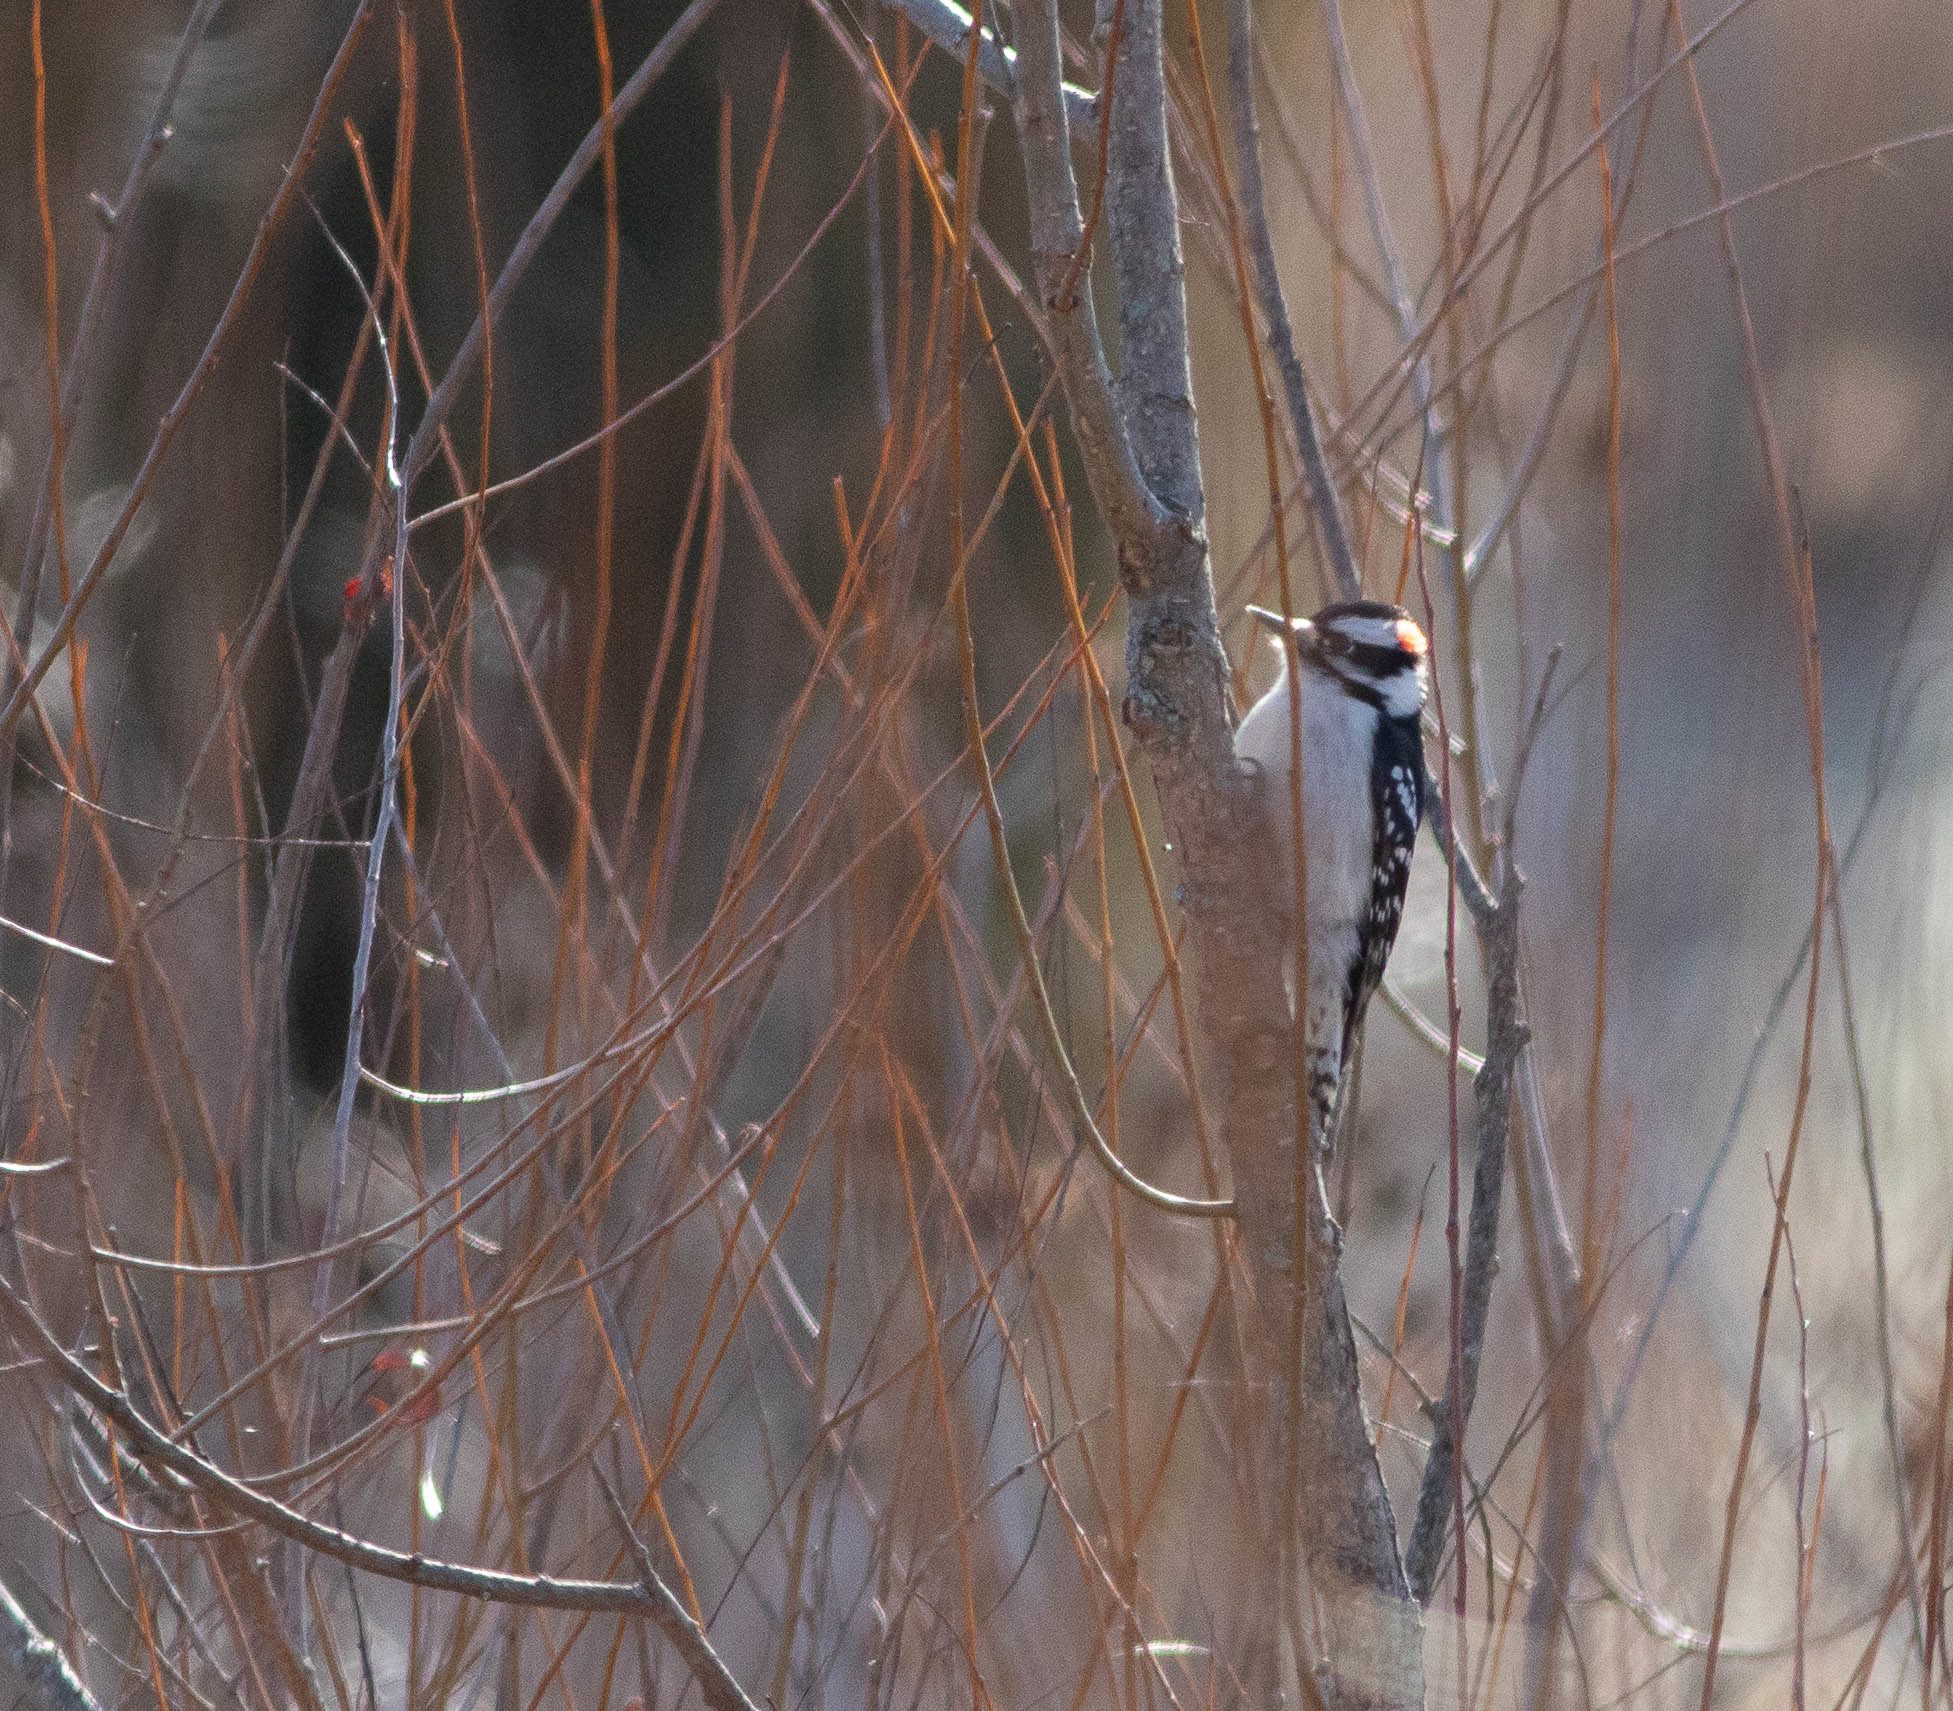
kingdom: Animalia
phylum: Chordata
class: Aves
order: Piciformes
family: Picidae
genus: Dryobates
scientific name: Dryobates pubescens
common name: Downy woodpecker
